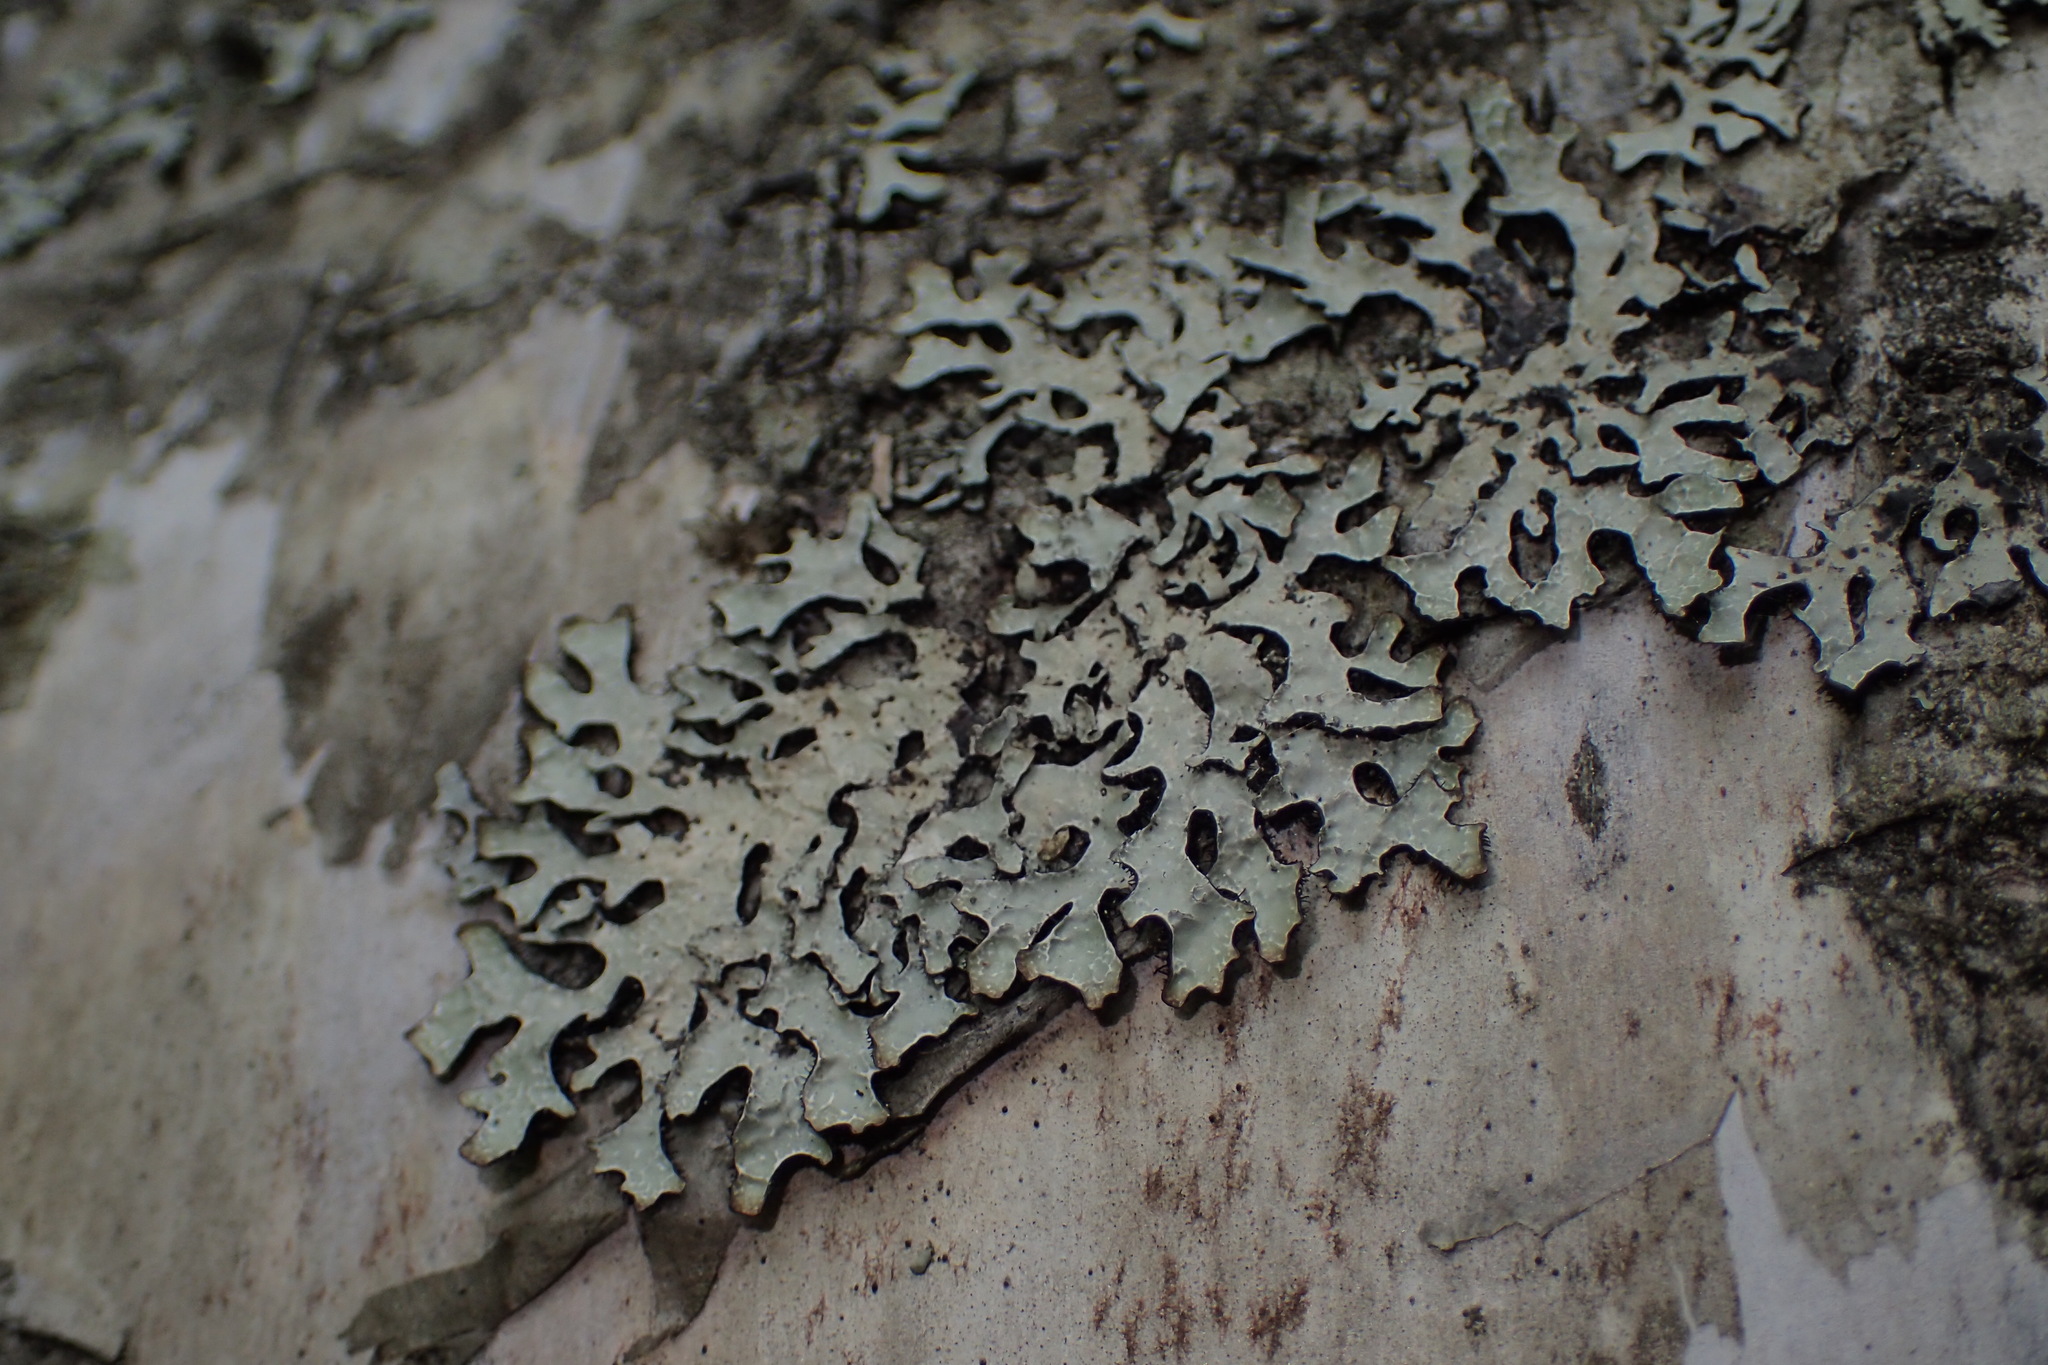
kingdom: Fungi
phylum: Ascomycota
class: Lecanoromycetes
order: Lecanorales
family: Parmeliaceae
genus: Parmelia
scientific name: Parmelia sulcata
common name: Netted shield lichen
